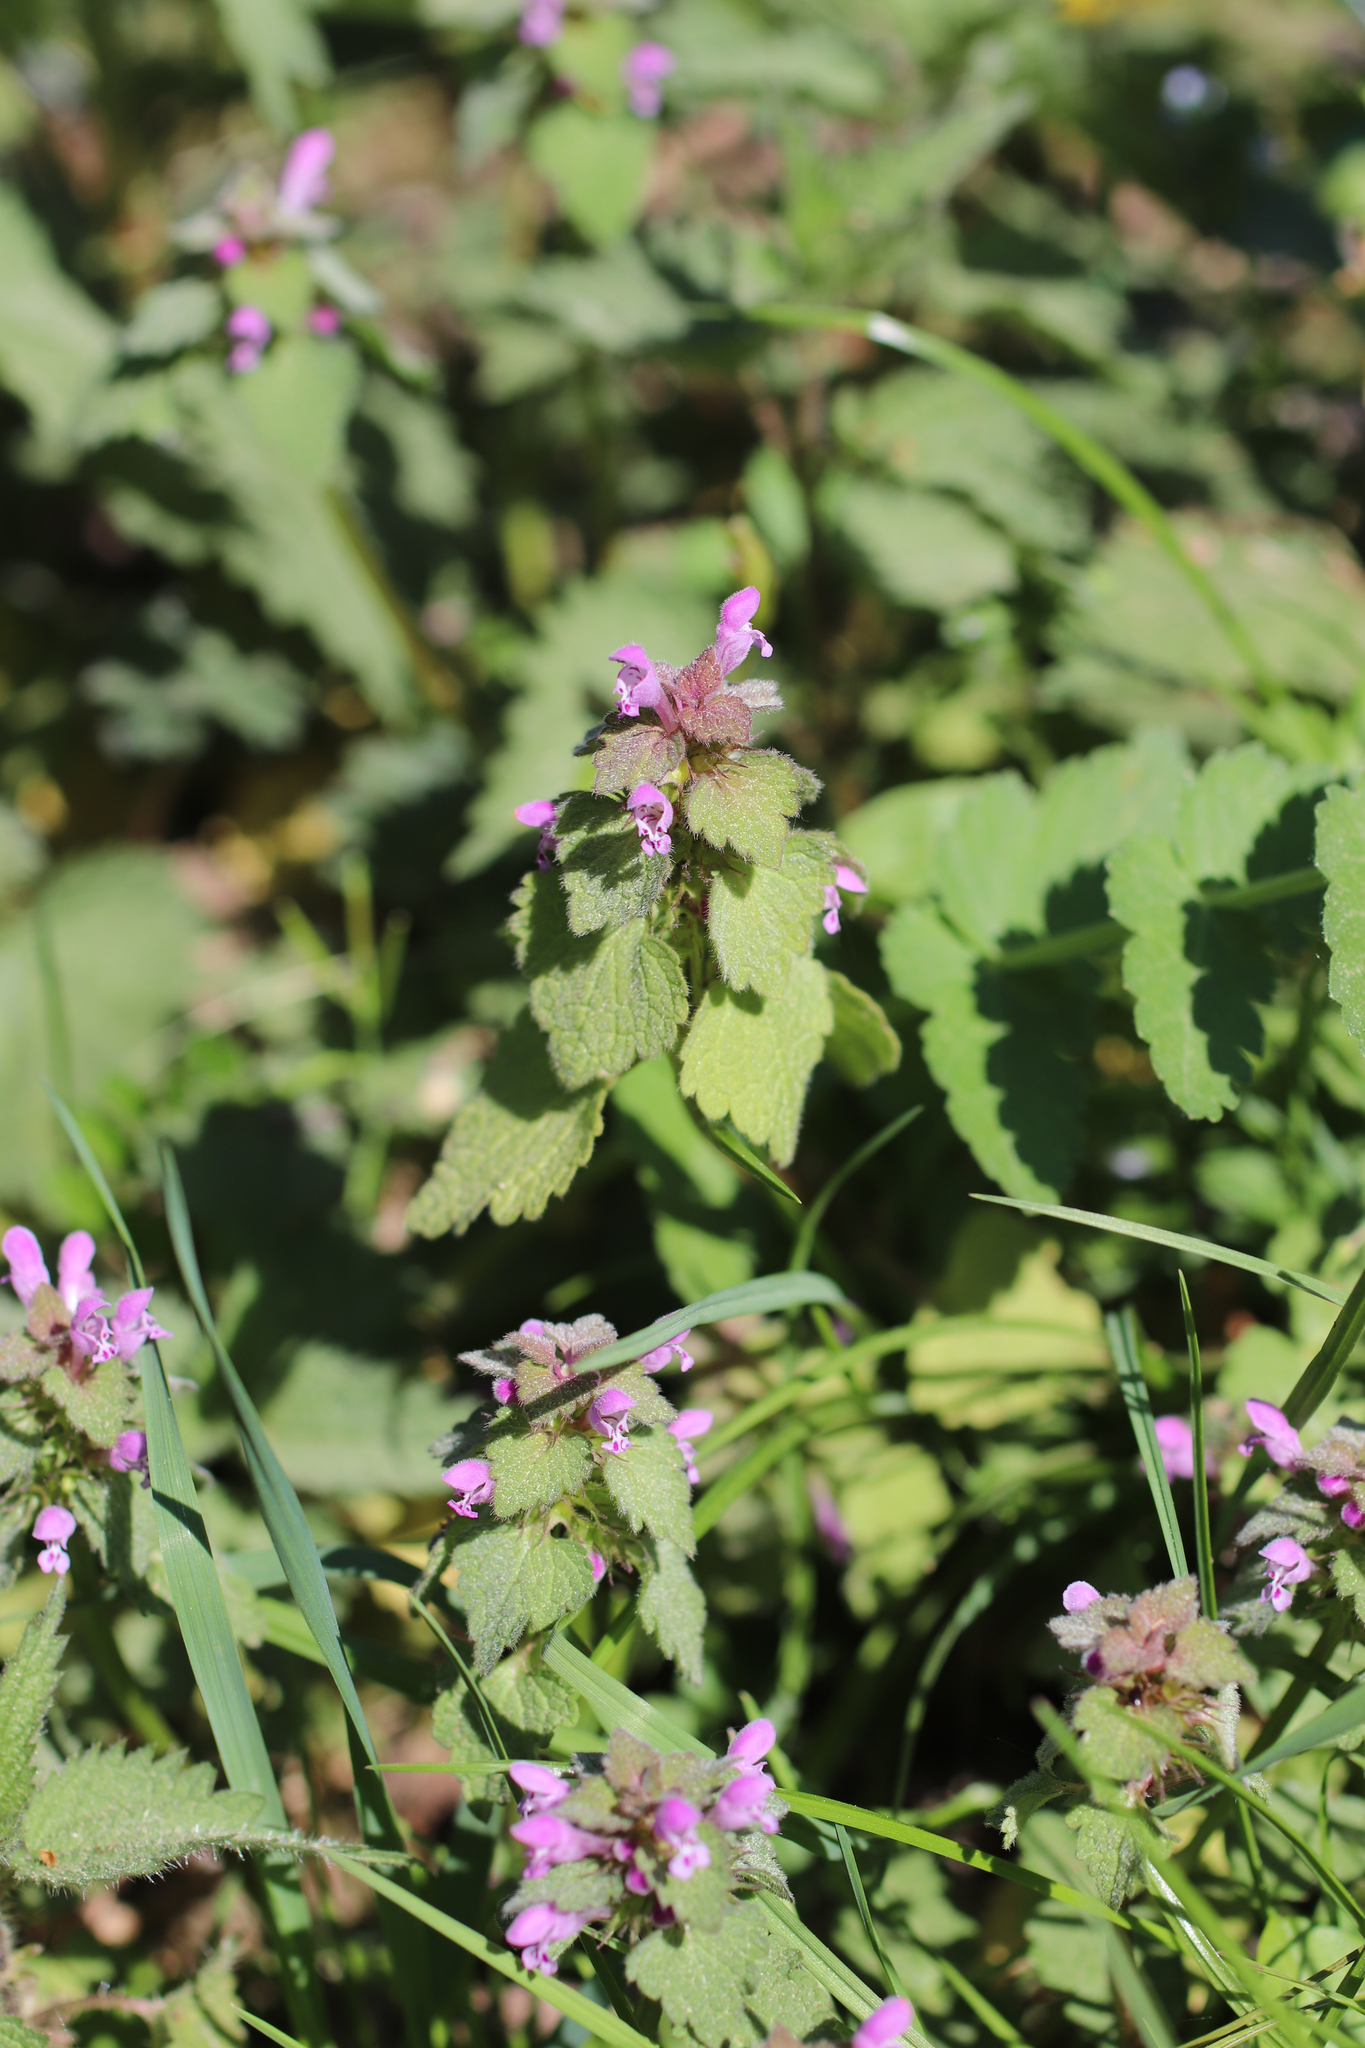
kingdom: Plantae
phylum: Tracheophyta
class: Magnoliopsida
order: Lamiales
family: Lamiaceae
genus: Lamium
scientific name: Lamium purpureum
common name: Red dead-nettle
